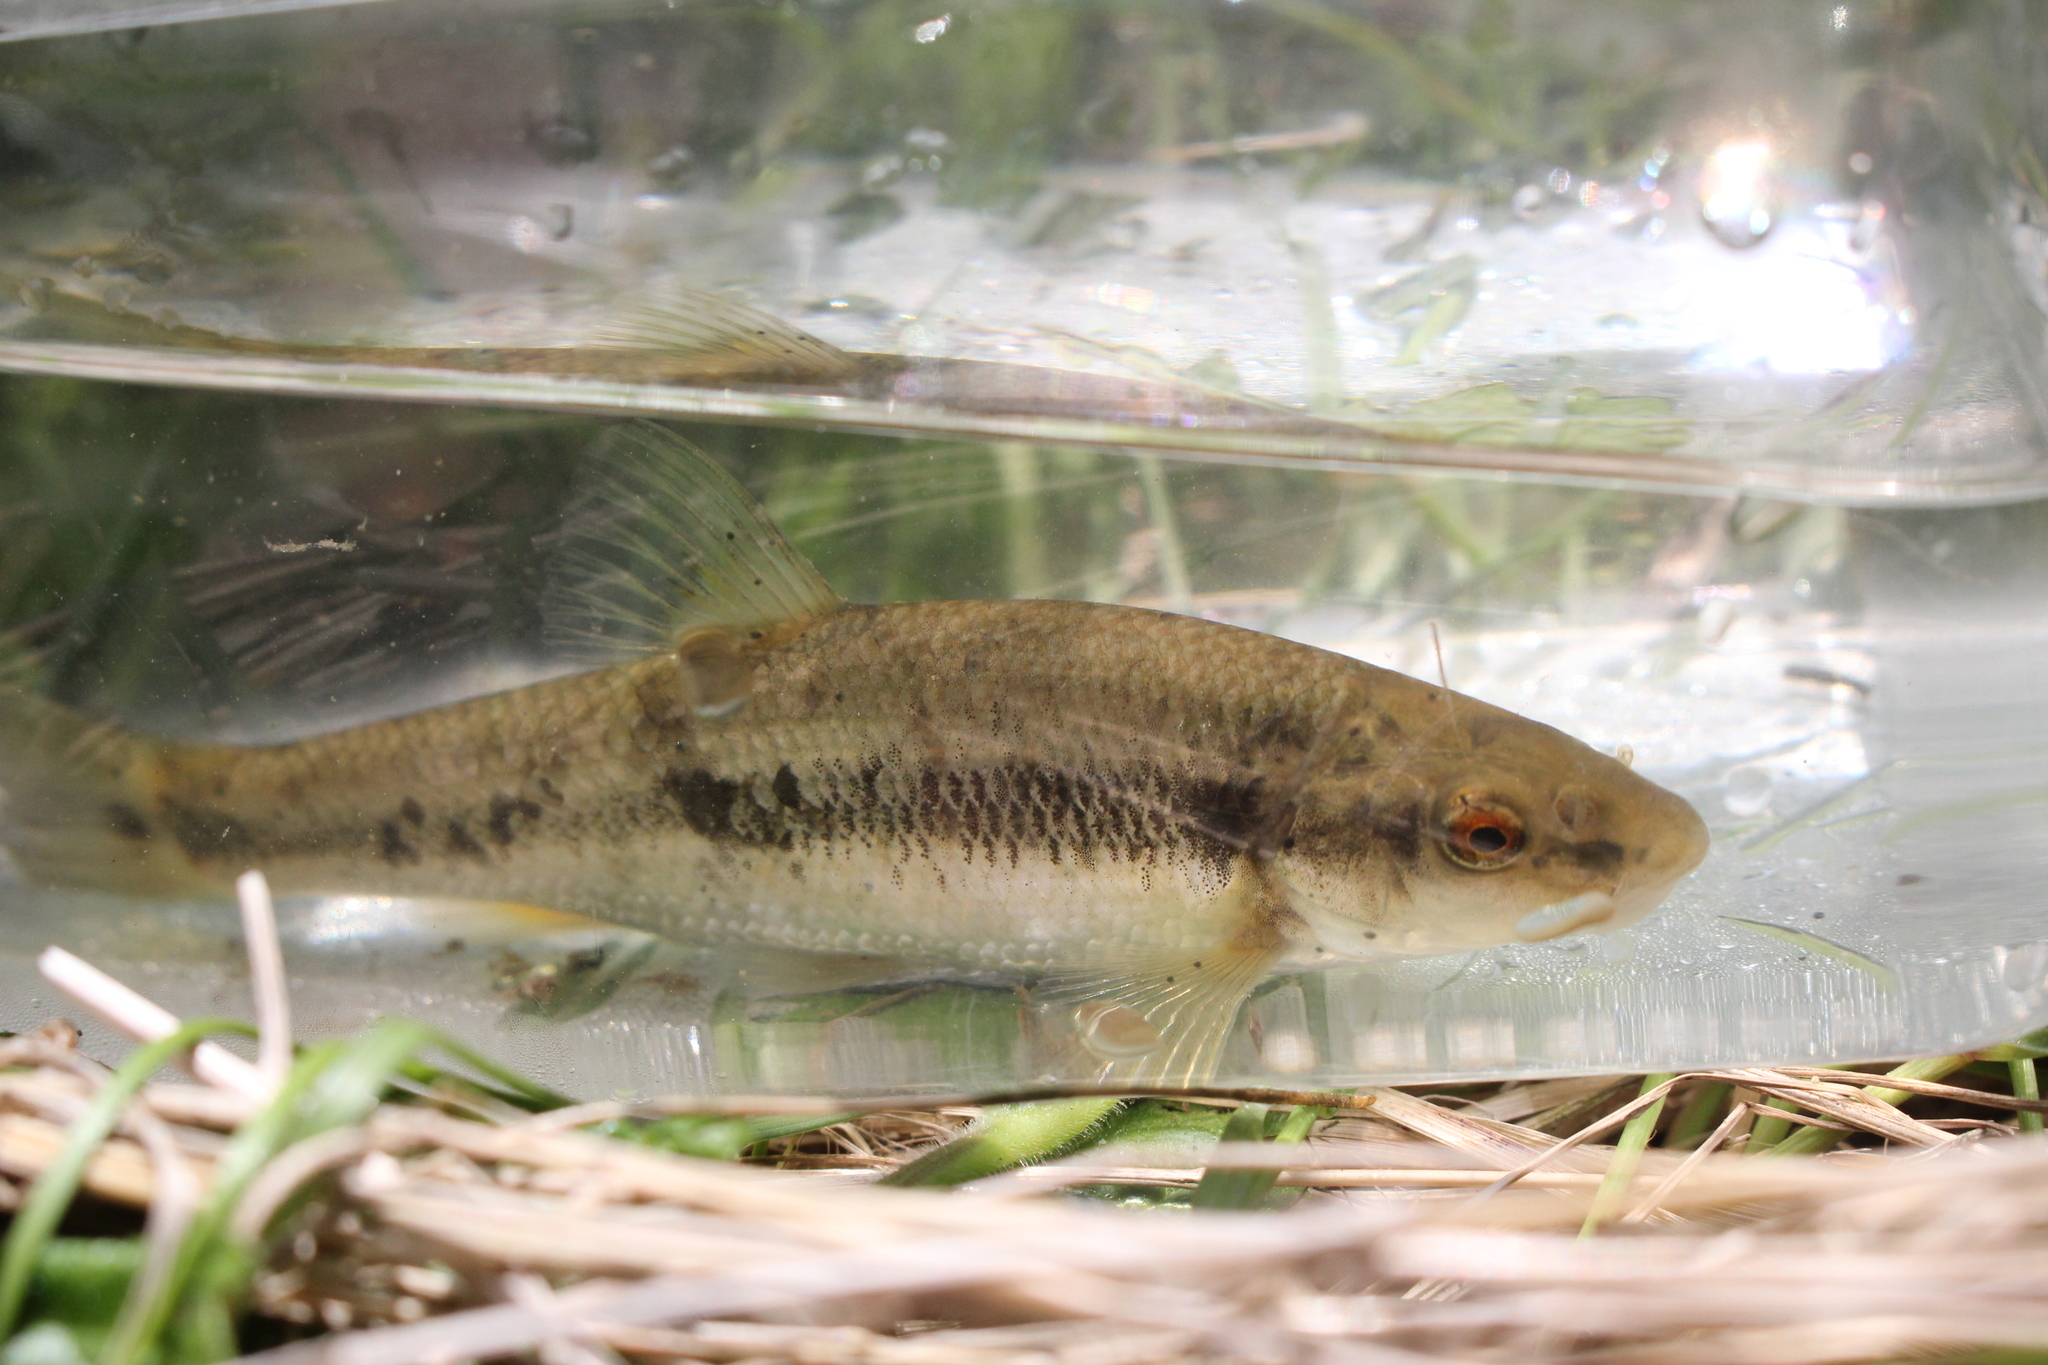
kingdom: Animalia
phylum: Chordata
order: Cypriniformes
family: Cyprinidae
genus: Campostoma
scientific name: Campostoma anomalum
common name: Central stoneroller
